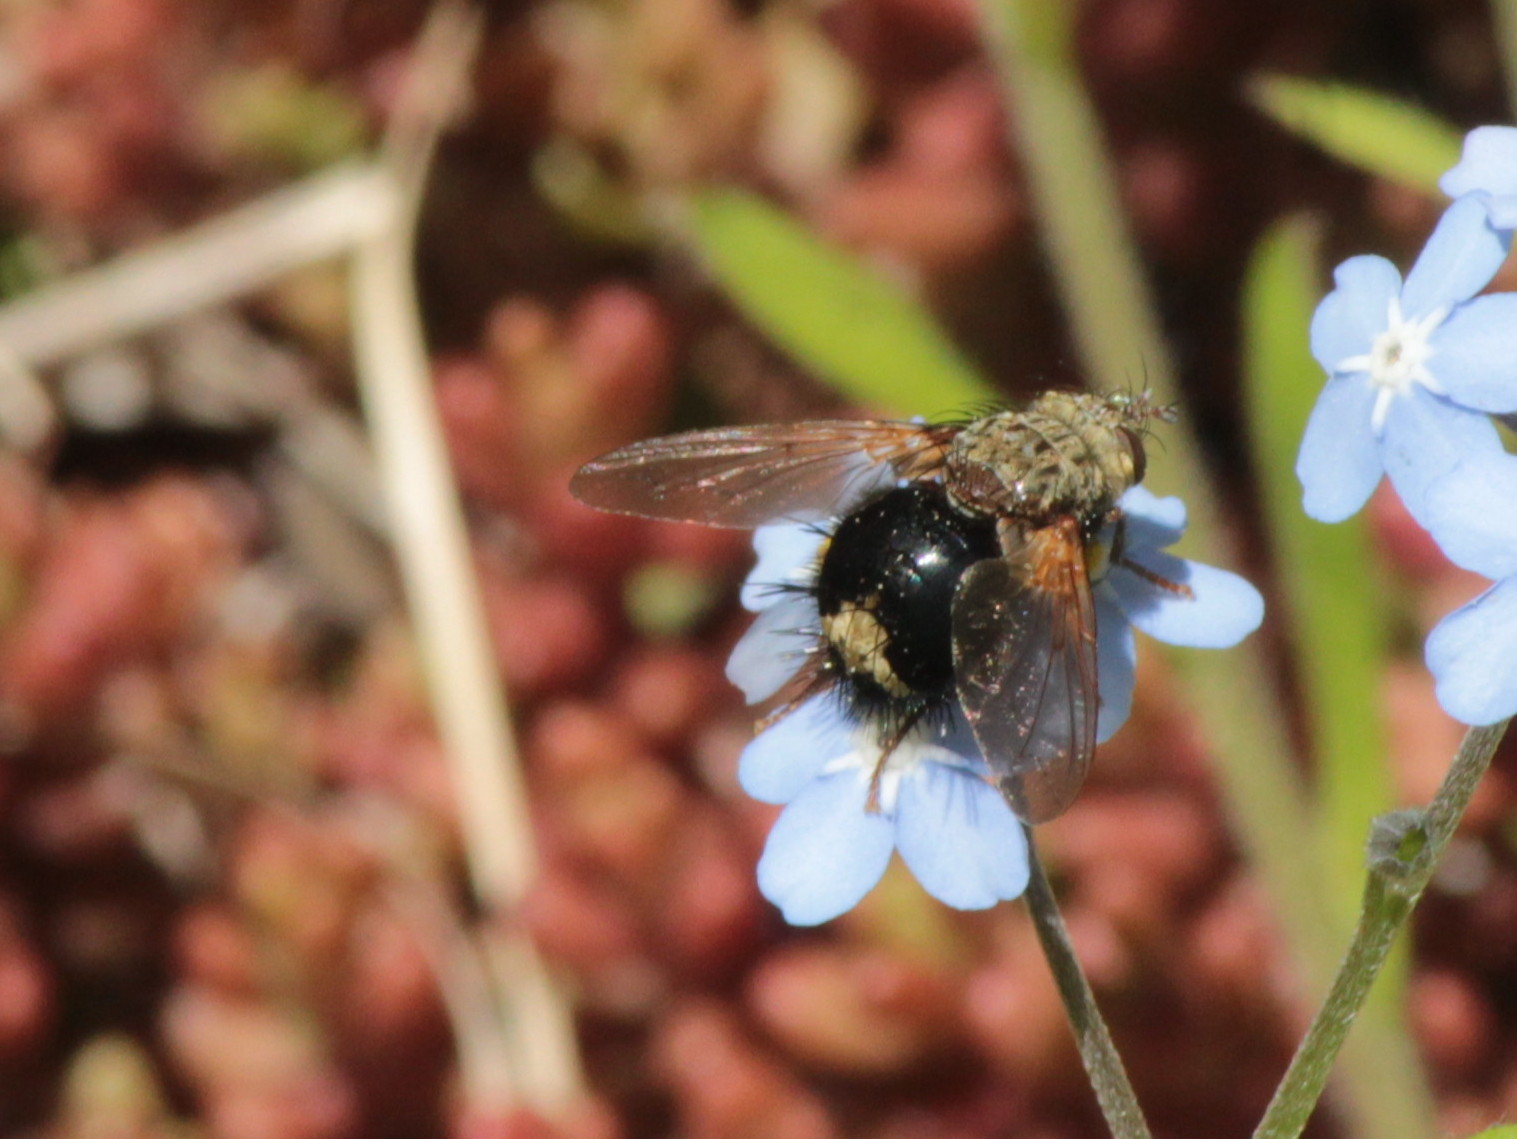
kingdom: Animalia
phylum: Arthropoda
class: Insecta
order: Diptera
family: Tachinidae
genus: Epalpus
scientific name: Epalpus signifer
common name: Early tachinid fly
